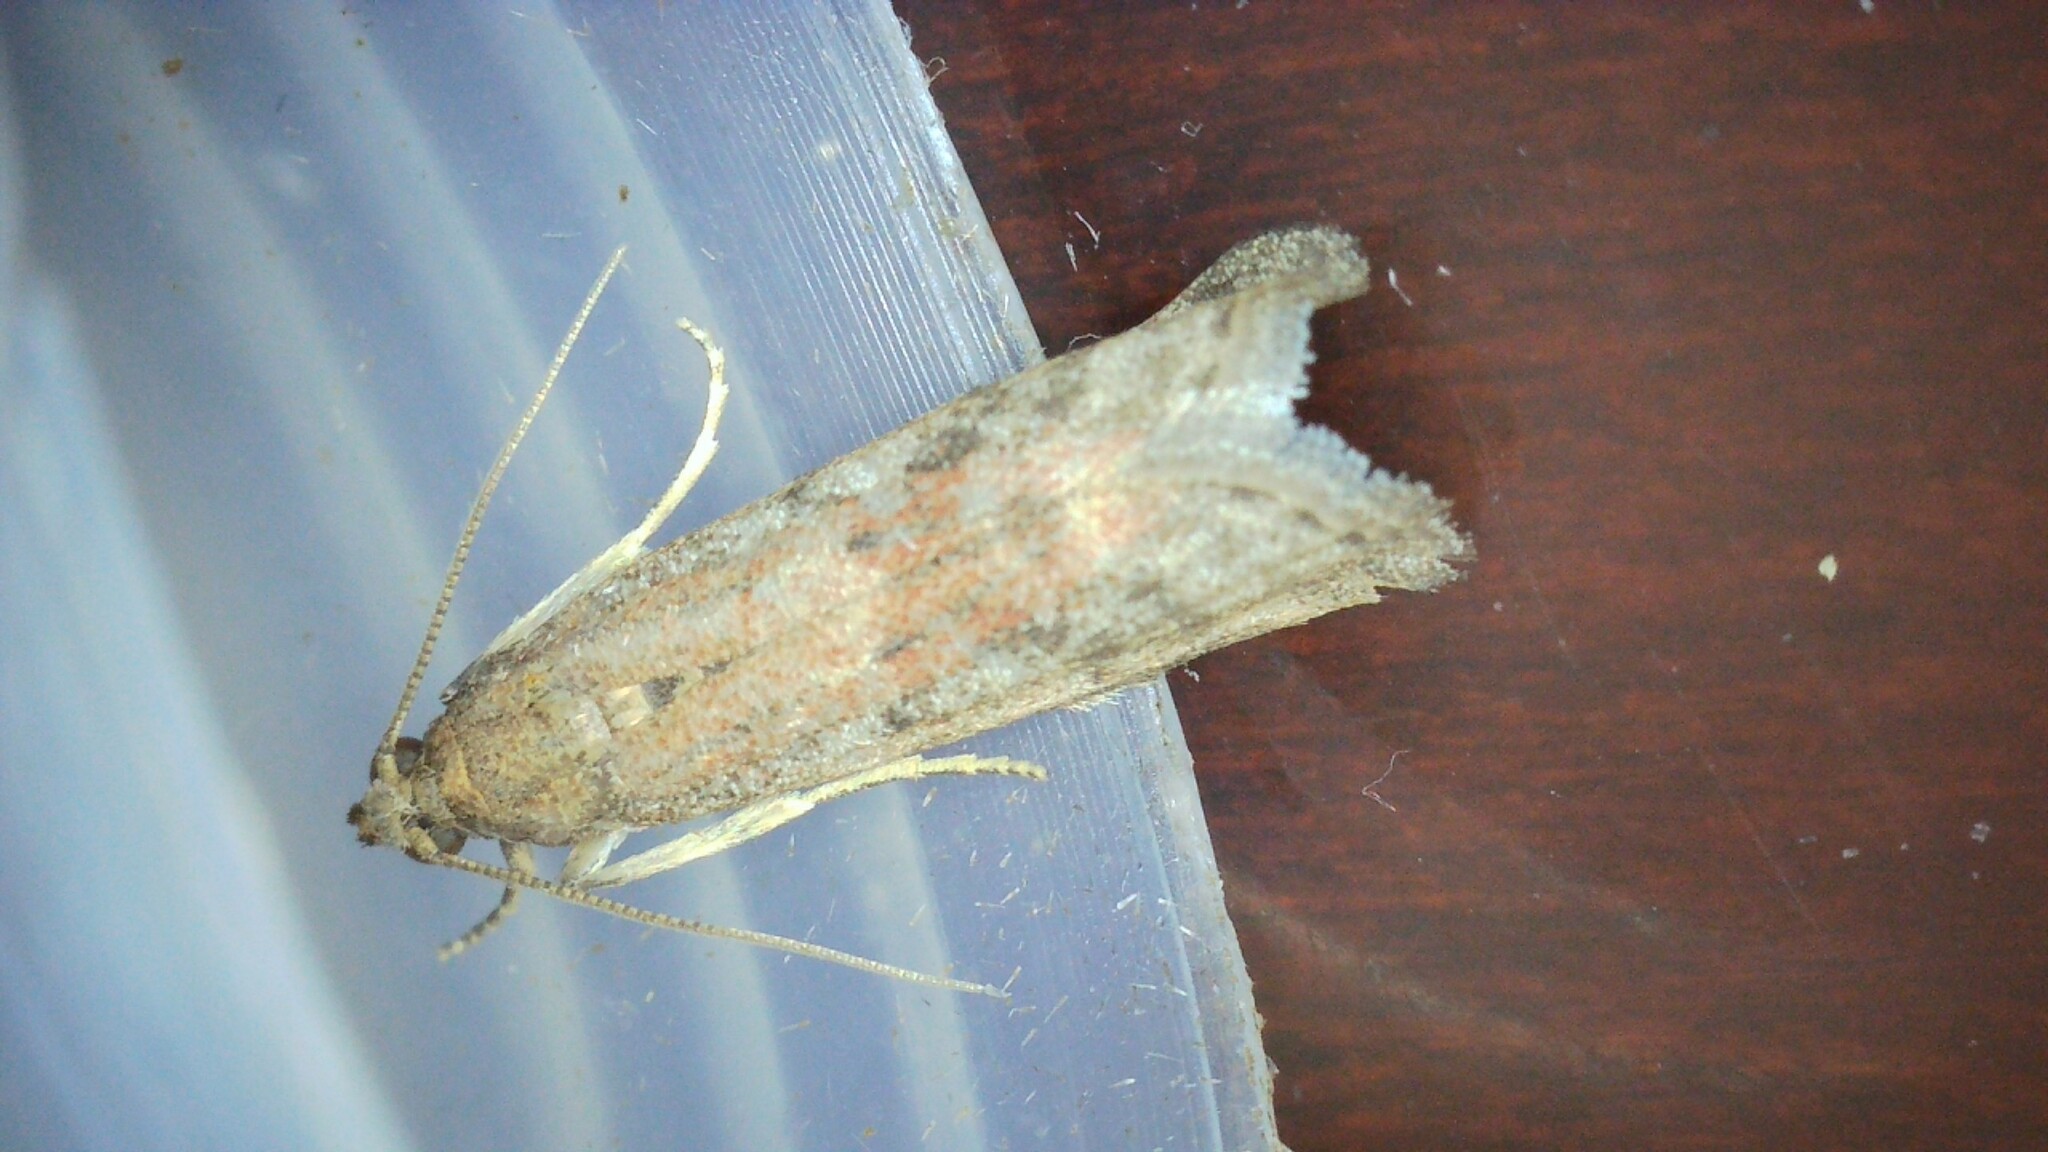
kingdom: Animalia
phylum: Arthropoda
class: Insecta
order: Lepidoptera
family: Pyralidae
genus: Ephestia
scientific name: Ephestia woodiella
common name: False cacao moth
